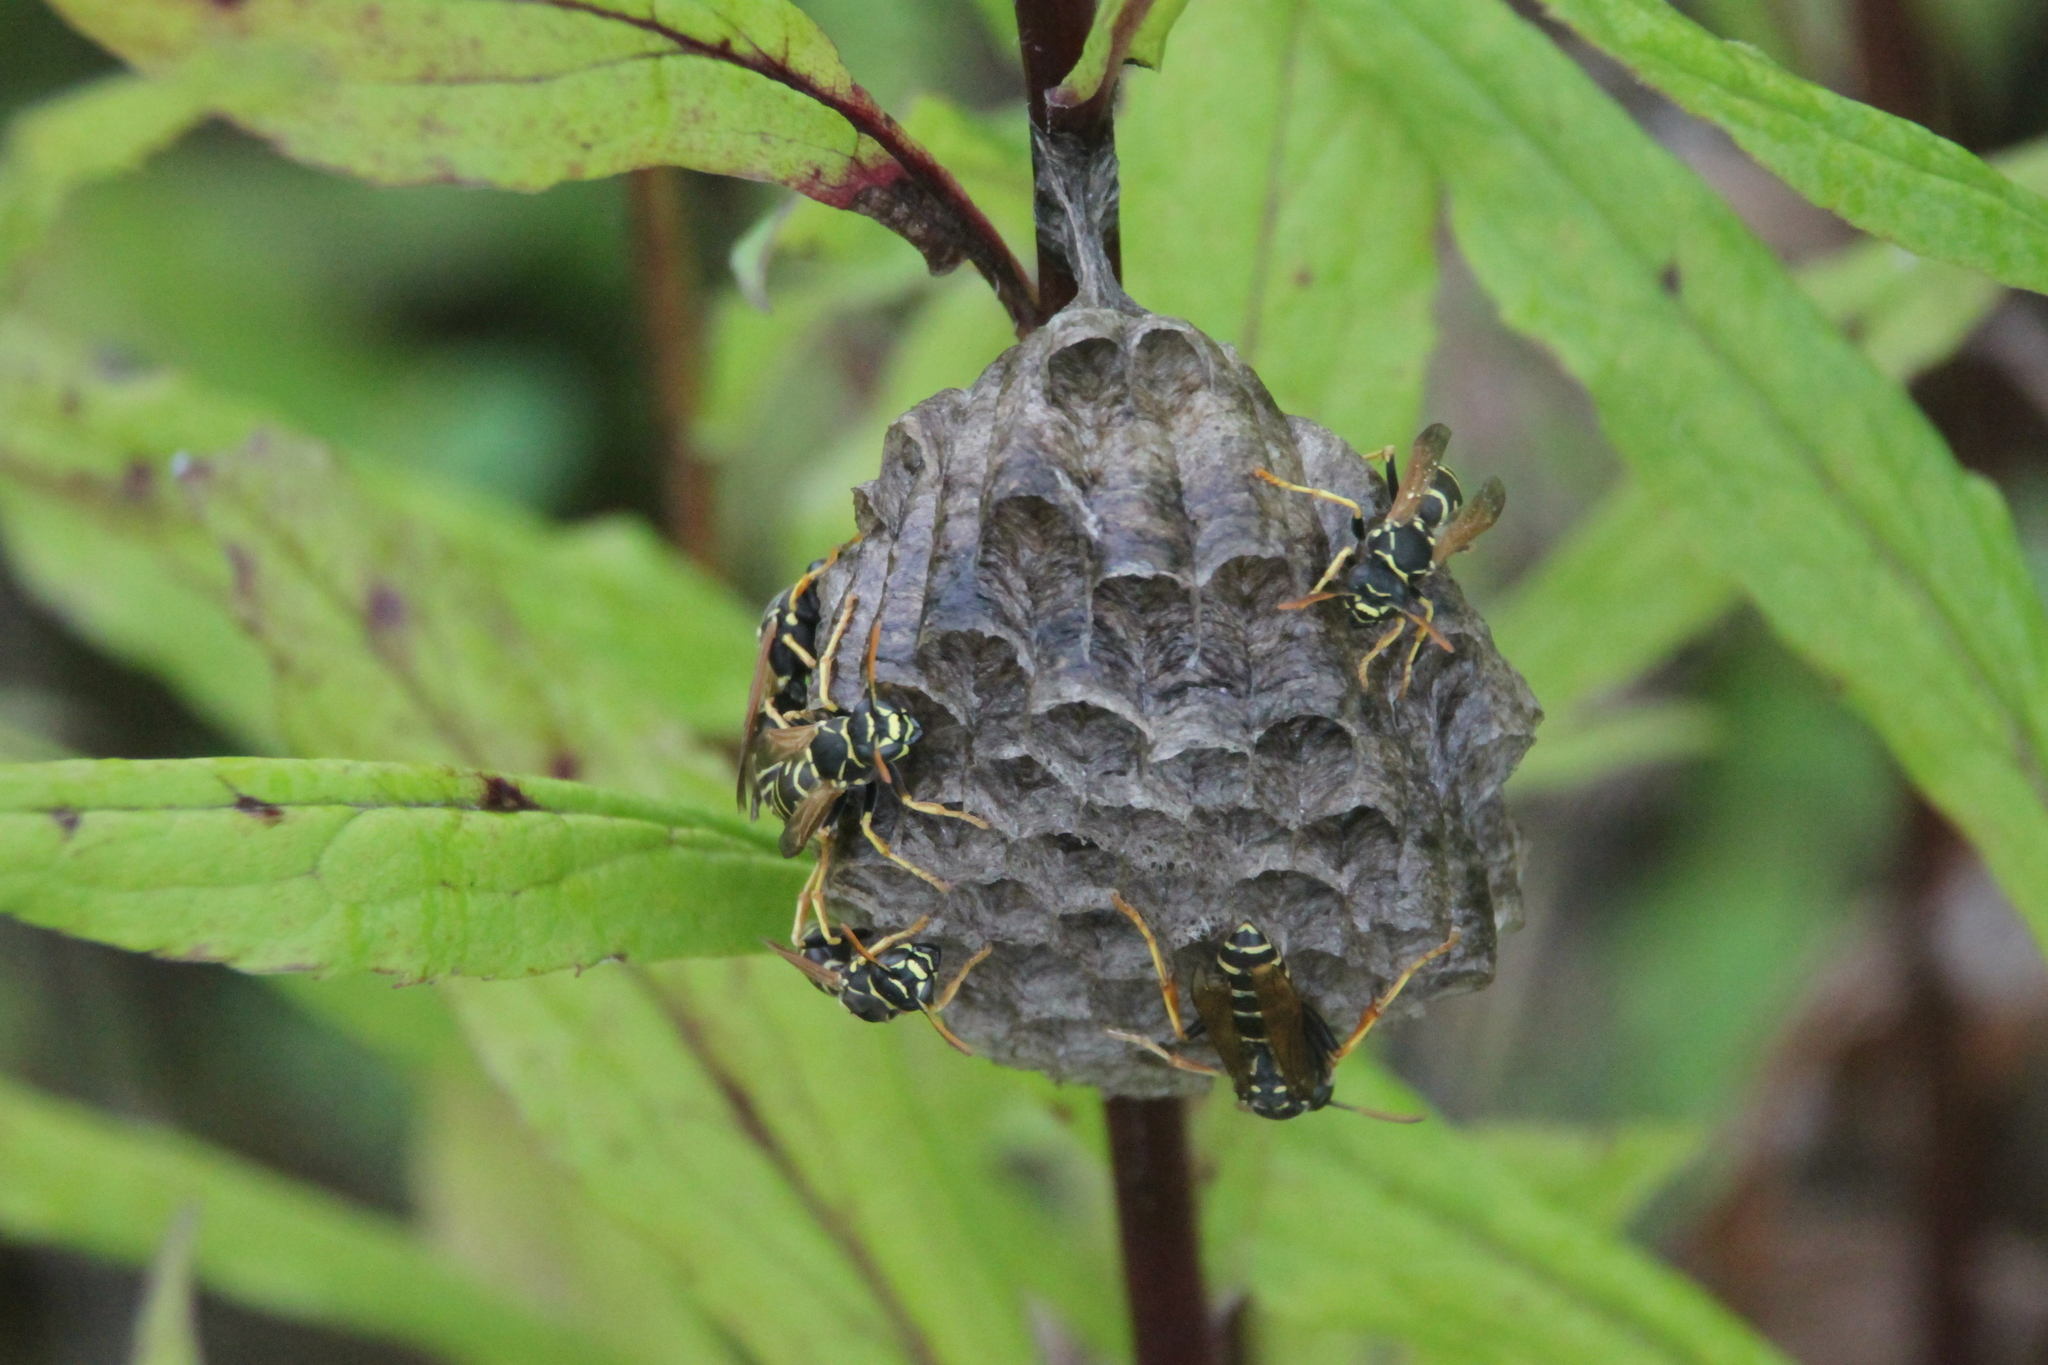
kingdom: Animalia
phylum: Arthropoda
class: Insecta
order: Hymenoptera
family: Eumenidae
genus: Polistes
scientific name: Polistes nimpha
